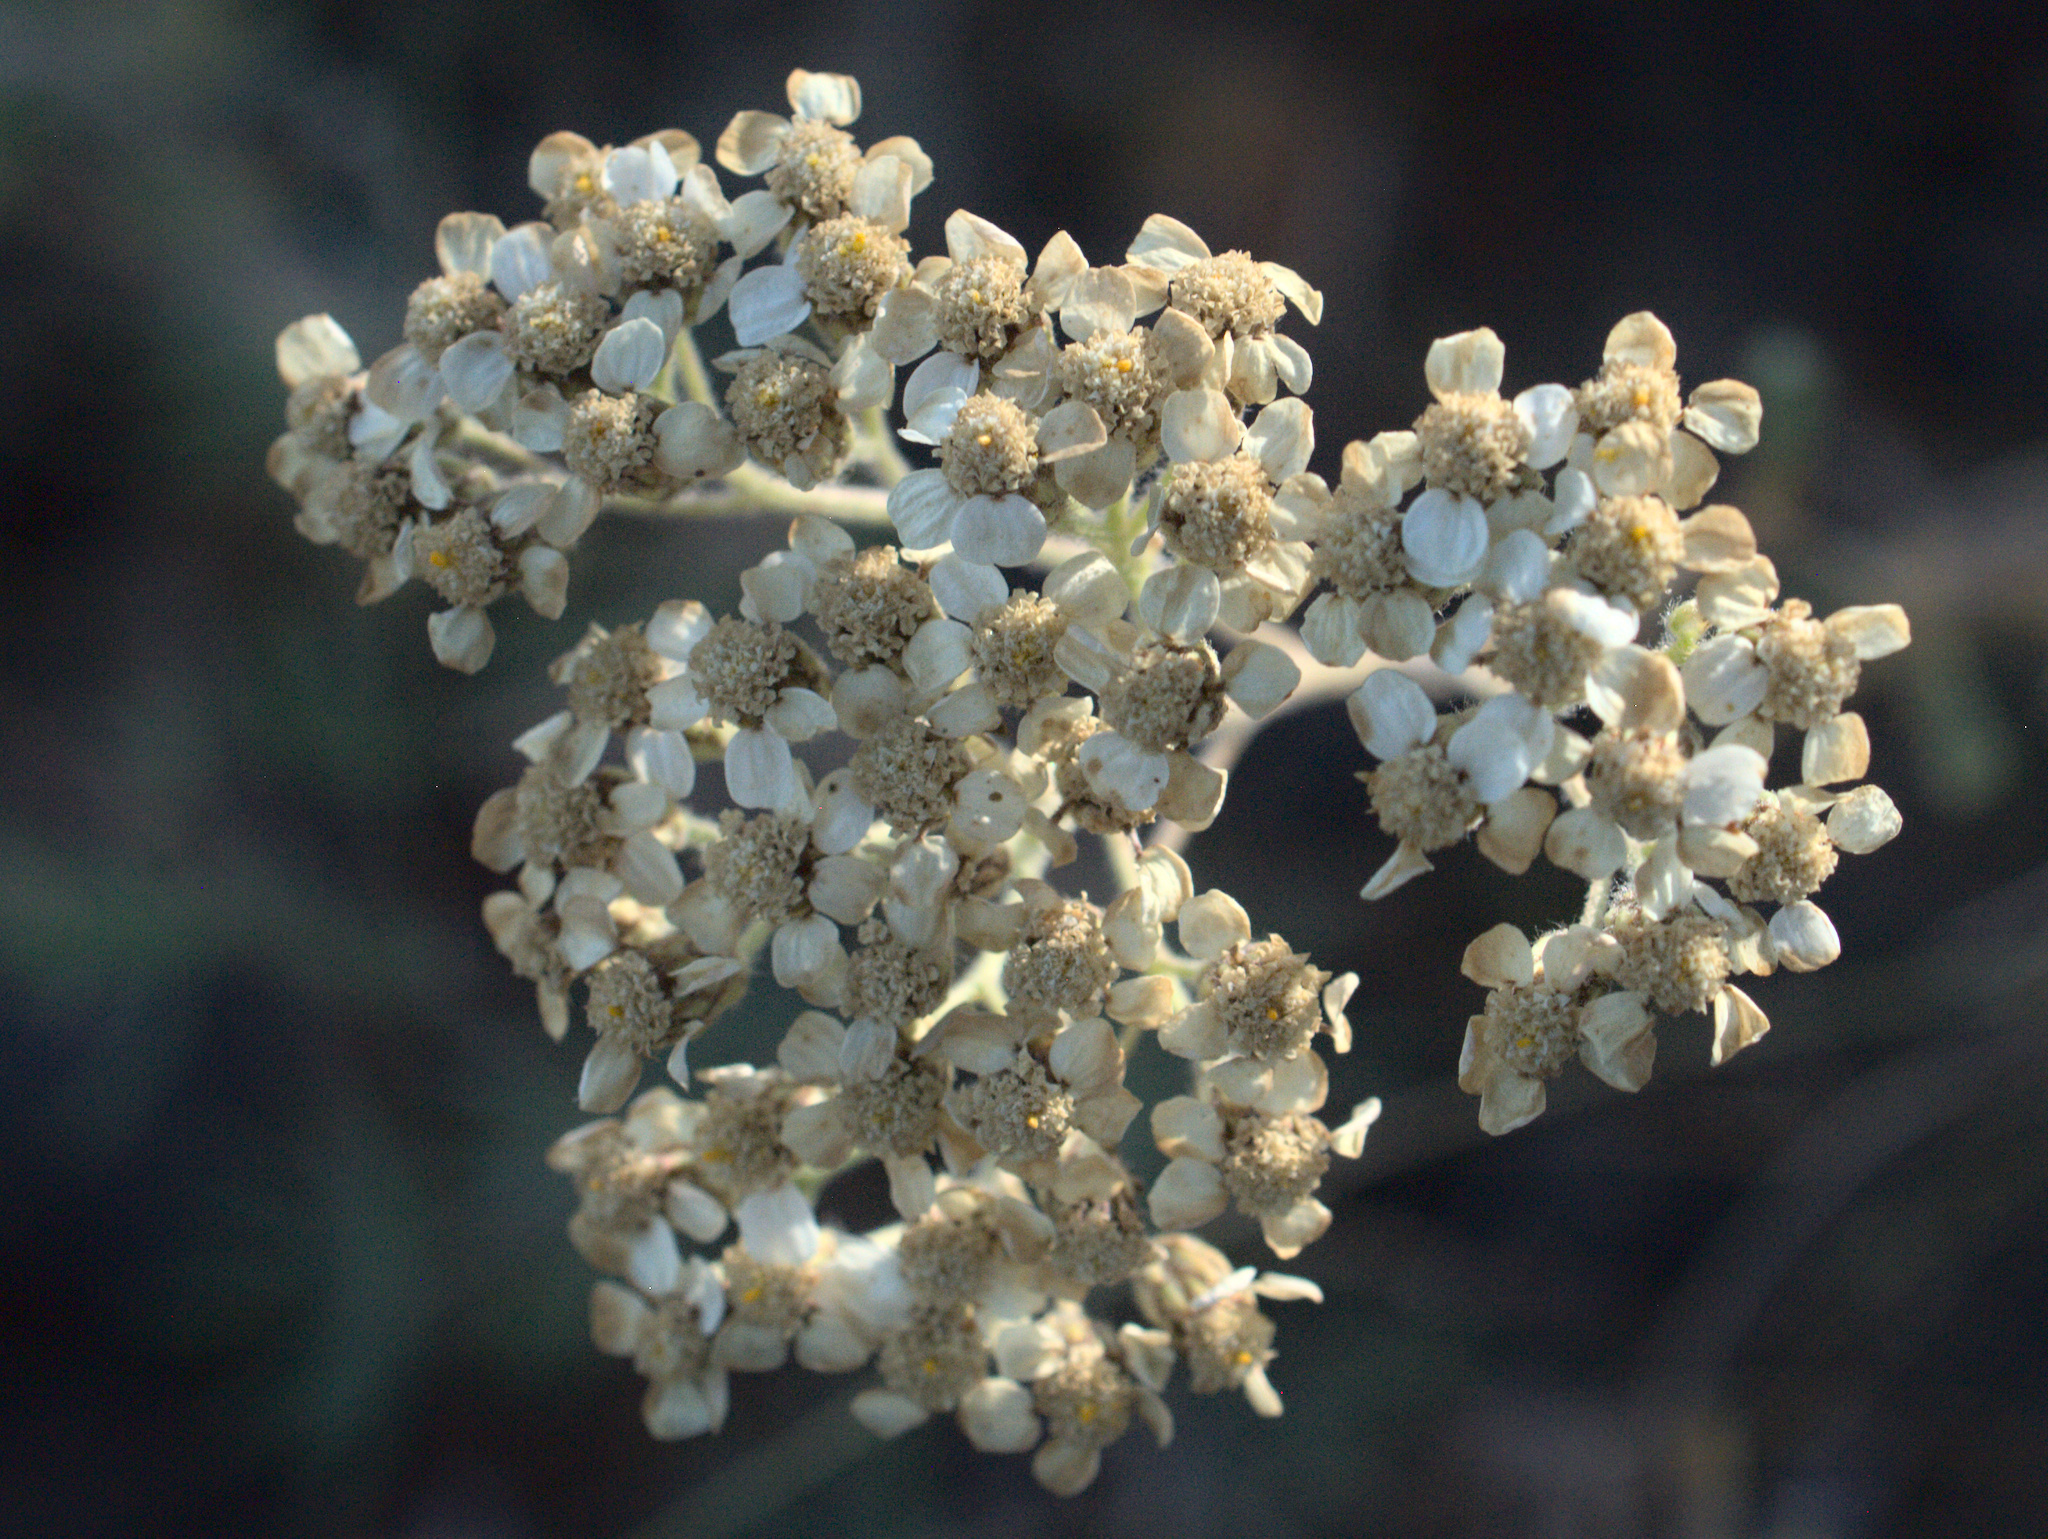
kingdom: Plantae
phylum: Tracheophyta
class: Magnoliopsida
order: Asterales
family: Asteraceae
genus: Achillea
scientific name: Achillea millefolium
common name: Yarrow
